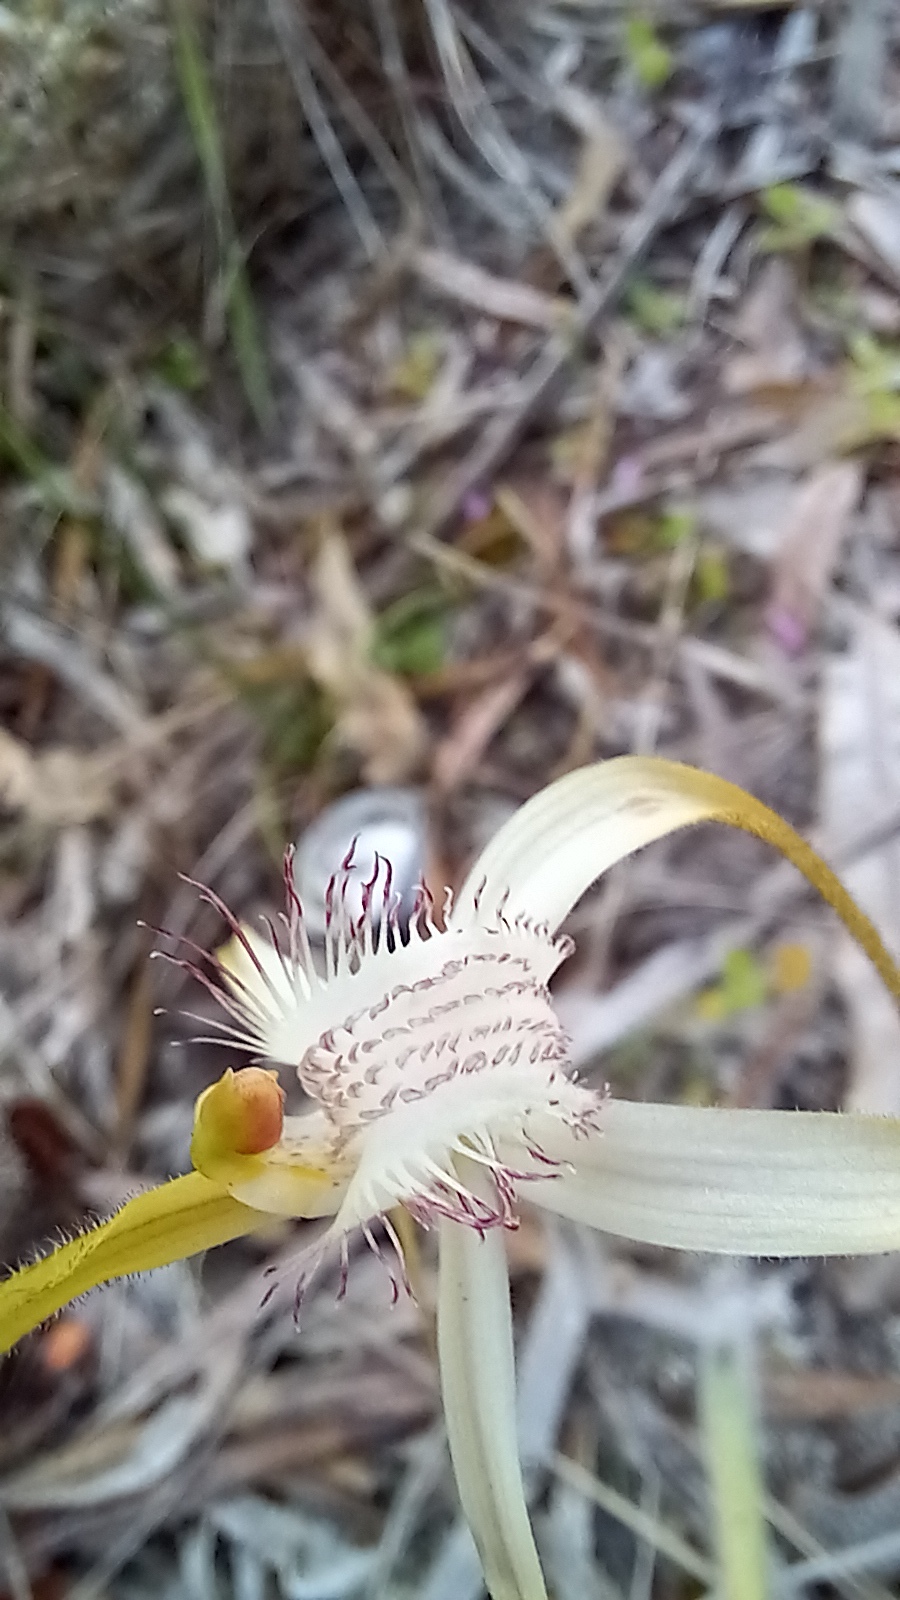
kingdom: Plantae
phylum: Tracheophyta
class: Liliopsida
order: Asparagales
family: Orchidaceae
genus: Caladenia
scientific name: Caladenia longicauda
